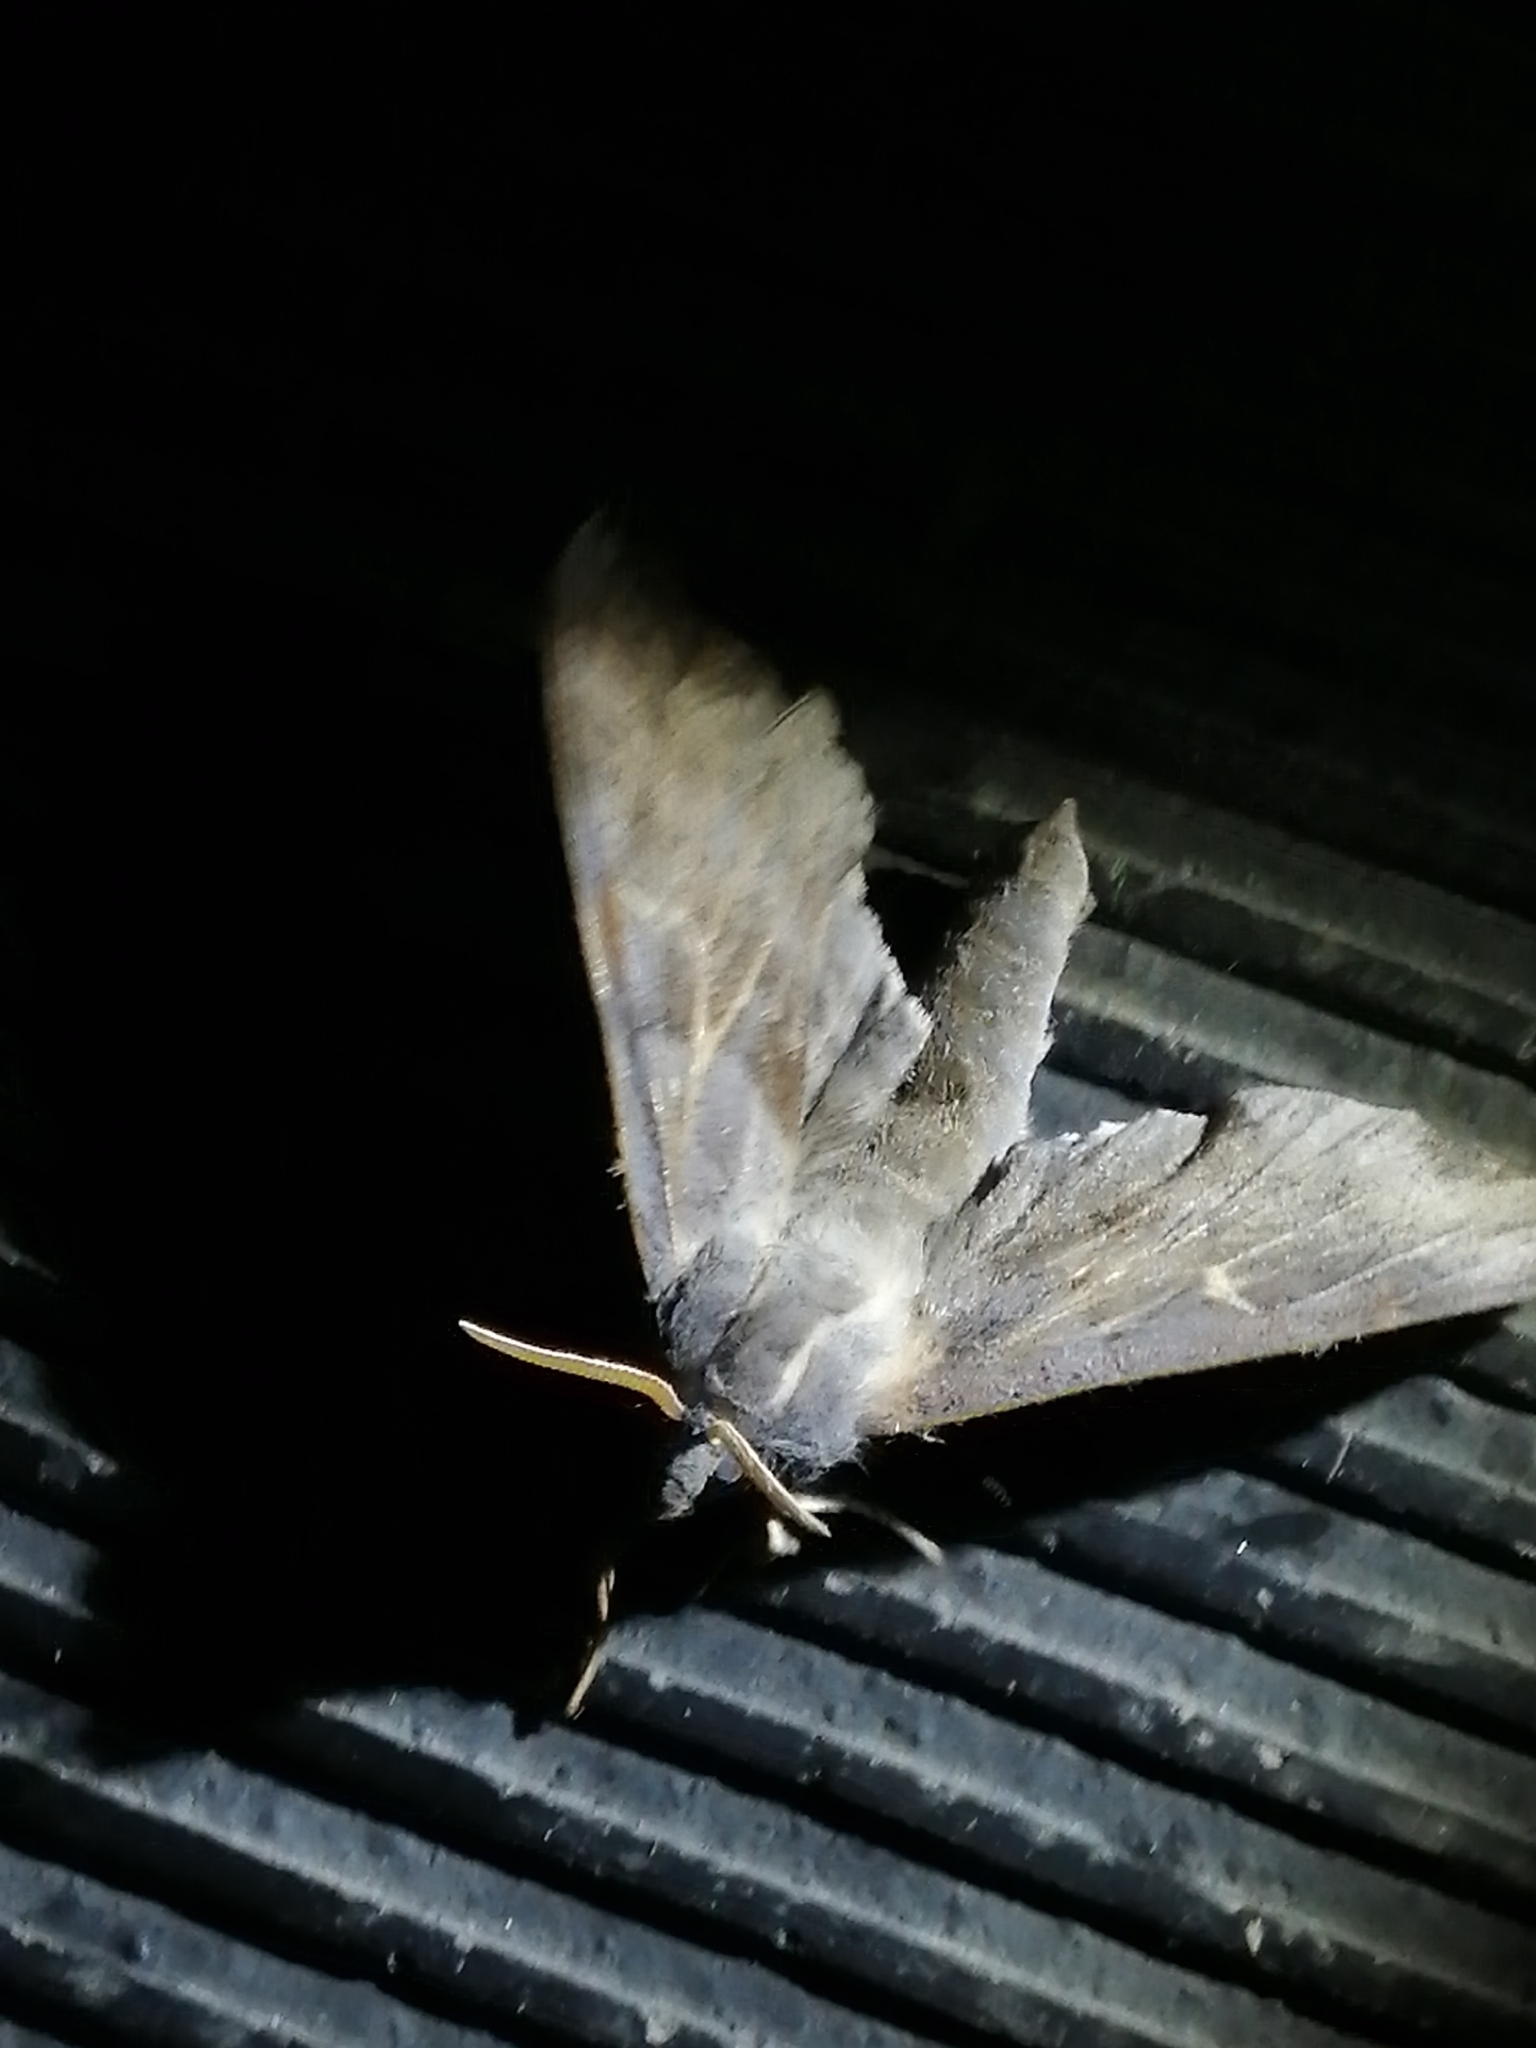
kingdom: Animalia
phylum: Arthropoda
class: Insecta
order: Lepidoptera
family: Sphingidae
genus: Laothoe
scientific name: Laothoe amurensis
